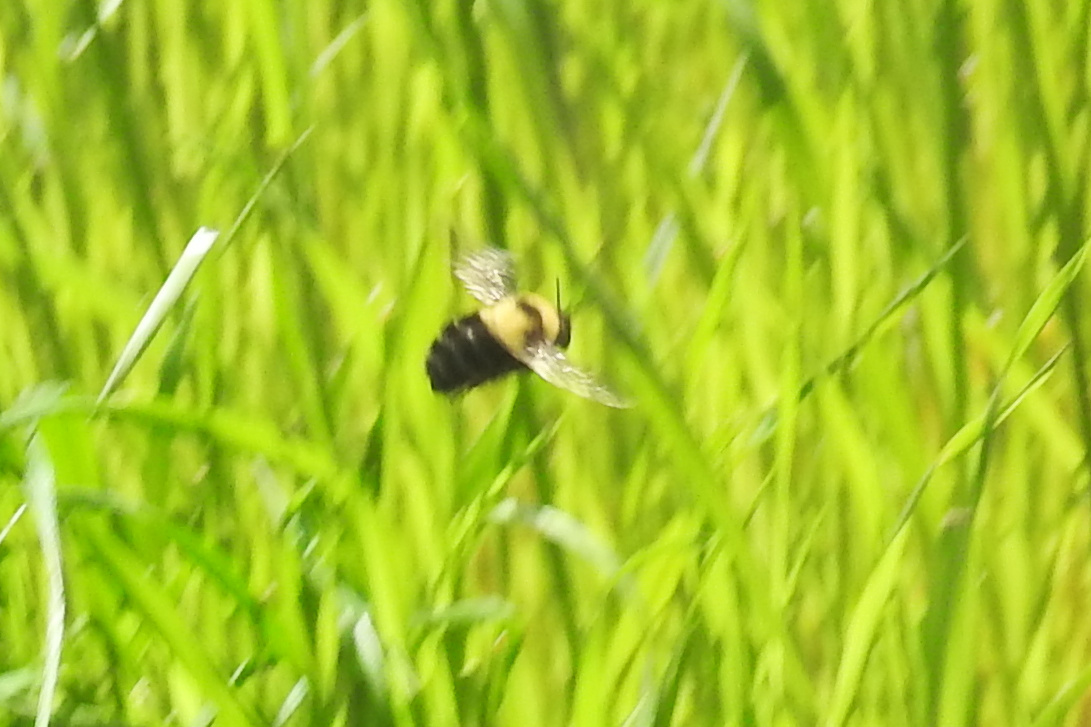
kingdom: Animalia
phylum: Arthropoda
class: Insecta
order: Hymenoptera
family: Apidae
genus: Bombus
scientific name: Bombus
